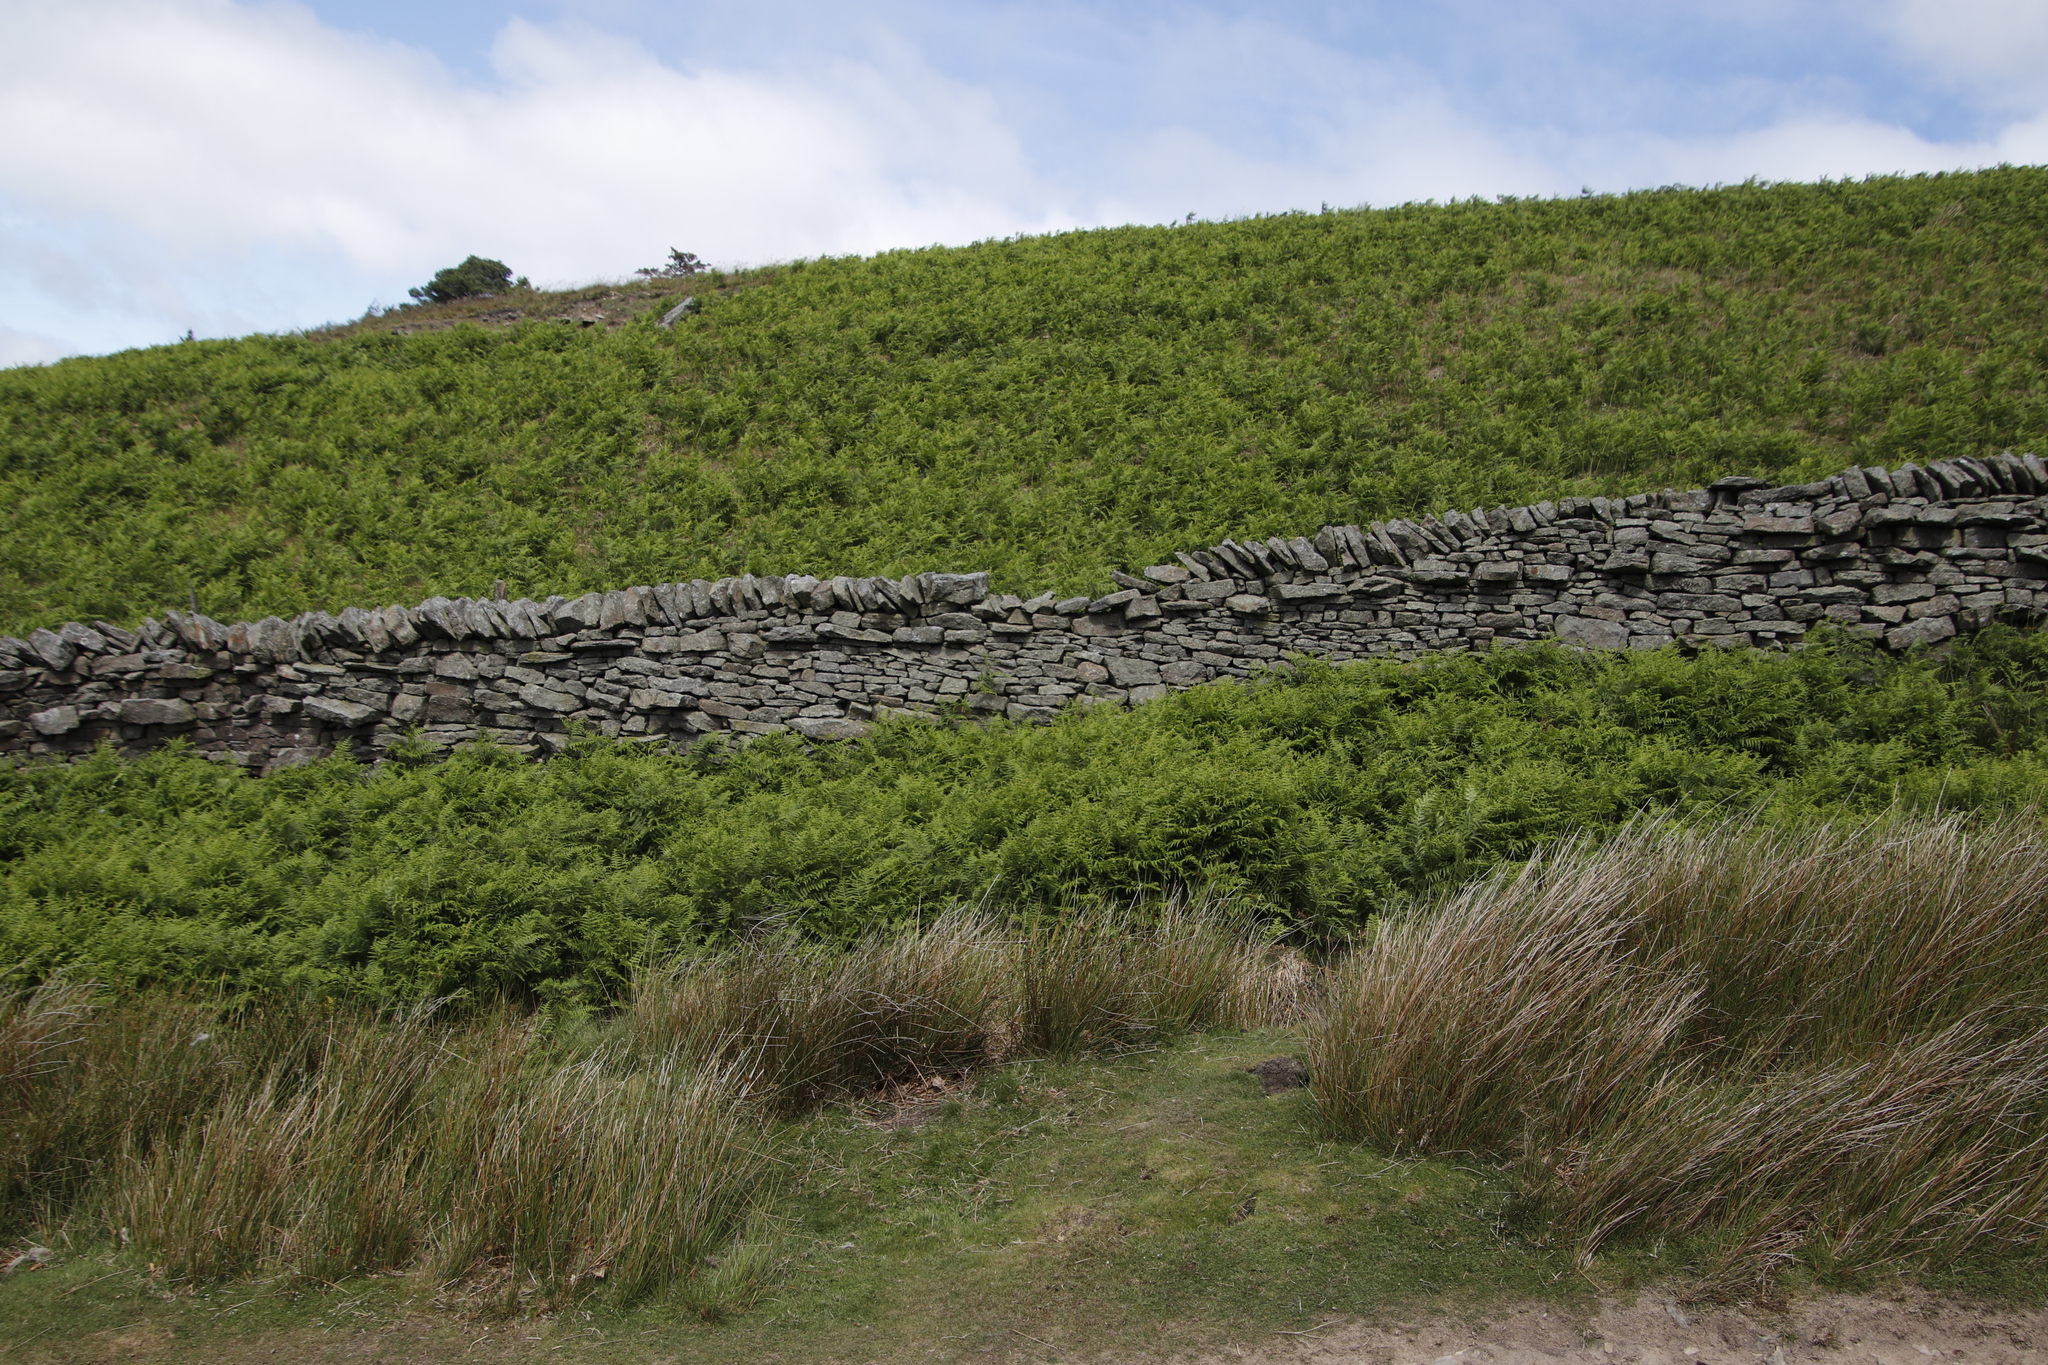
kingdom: Plantae
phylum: Tracheophyta
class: Polypodiopsida
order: Polypodiales
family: Dennstaedtiaceae
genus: Pteridium
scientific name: Pteridium aquilinum
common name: Bracken
